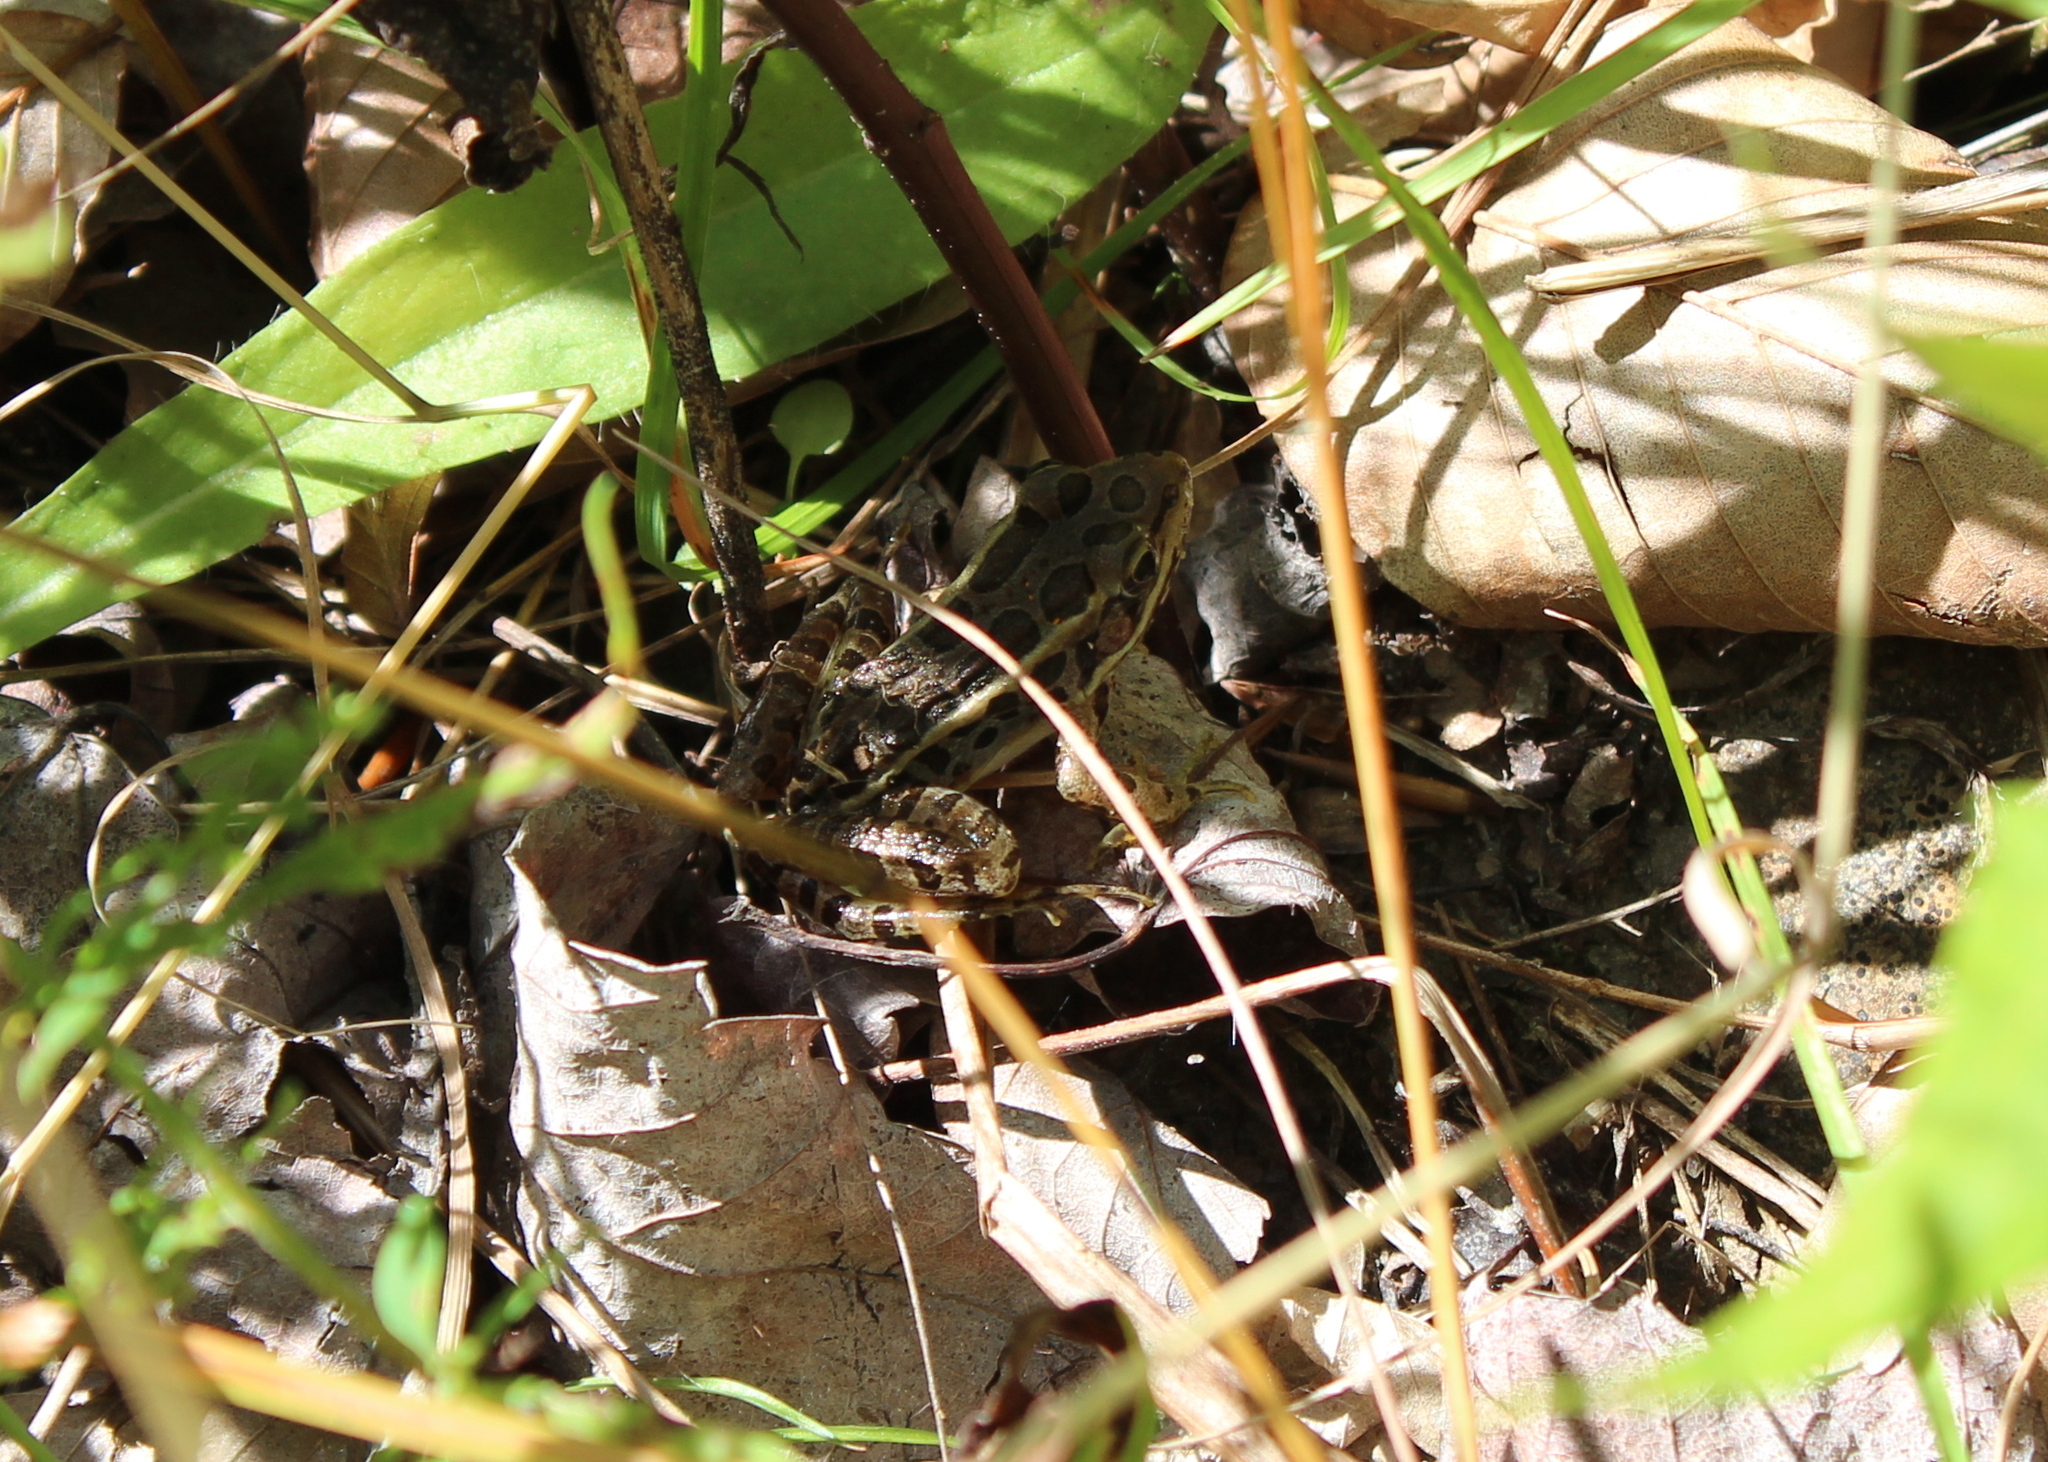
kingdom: Animalia
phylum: Chordata
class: Amphibia
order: Anura
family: Ranidae
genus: Lithobates
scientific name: Lithobates palustris
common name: Pickerel frog
